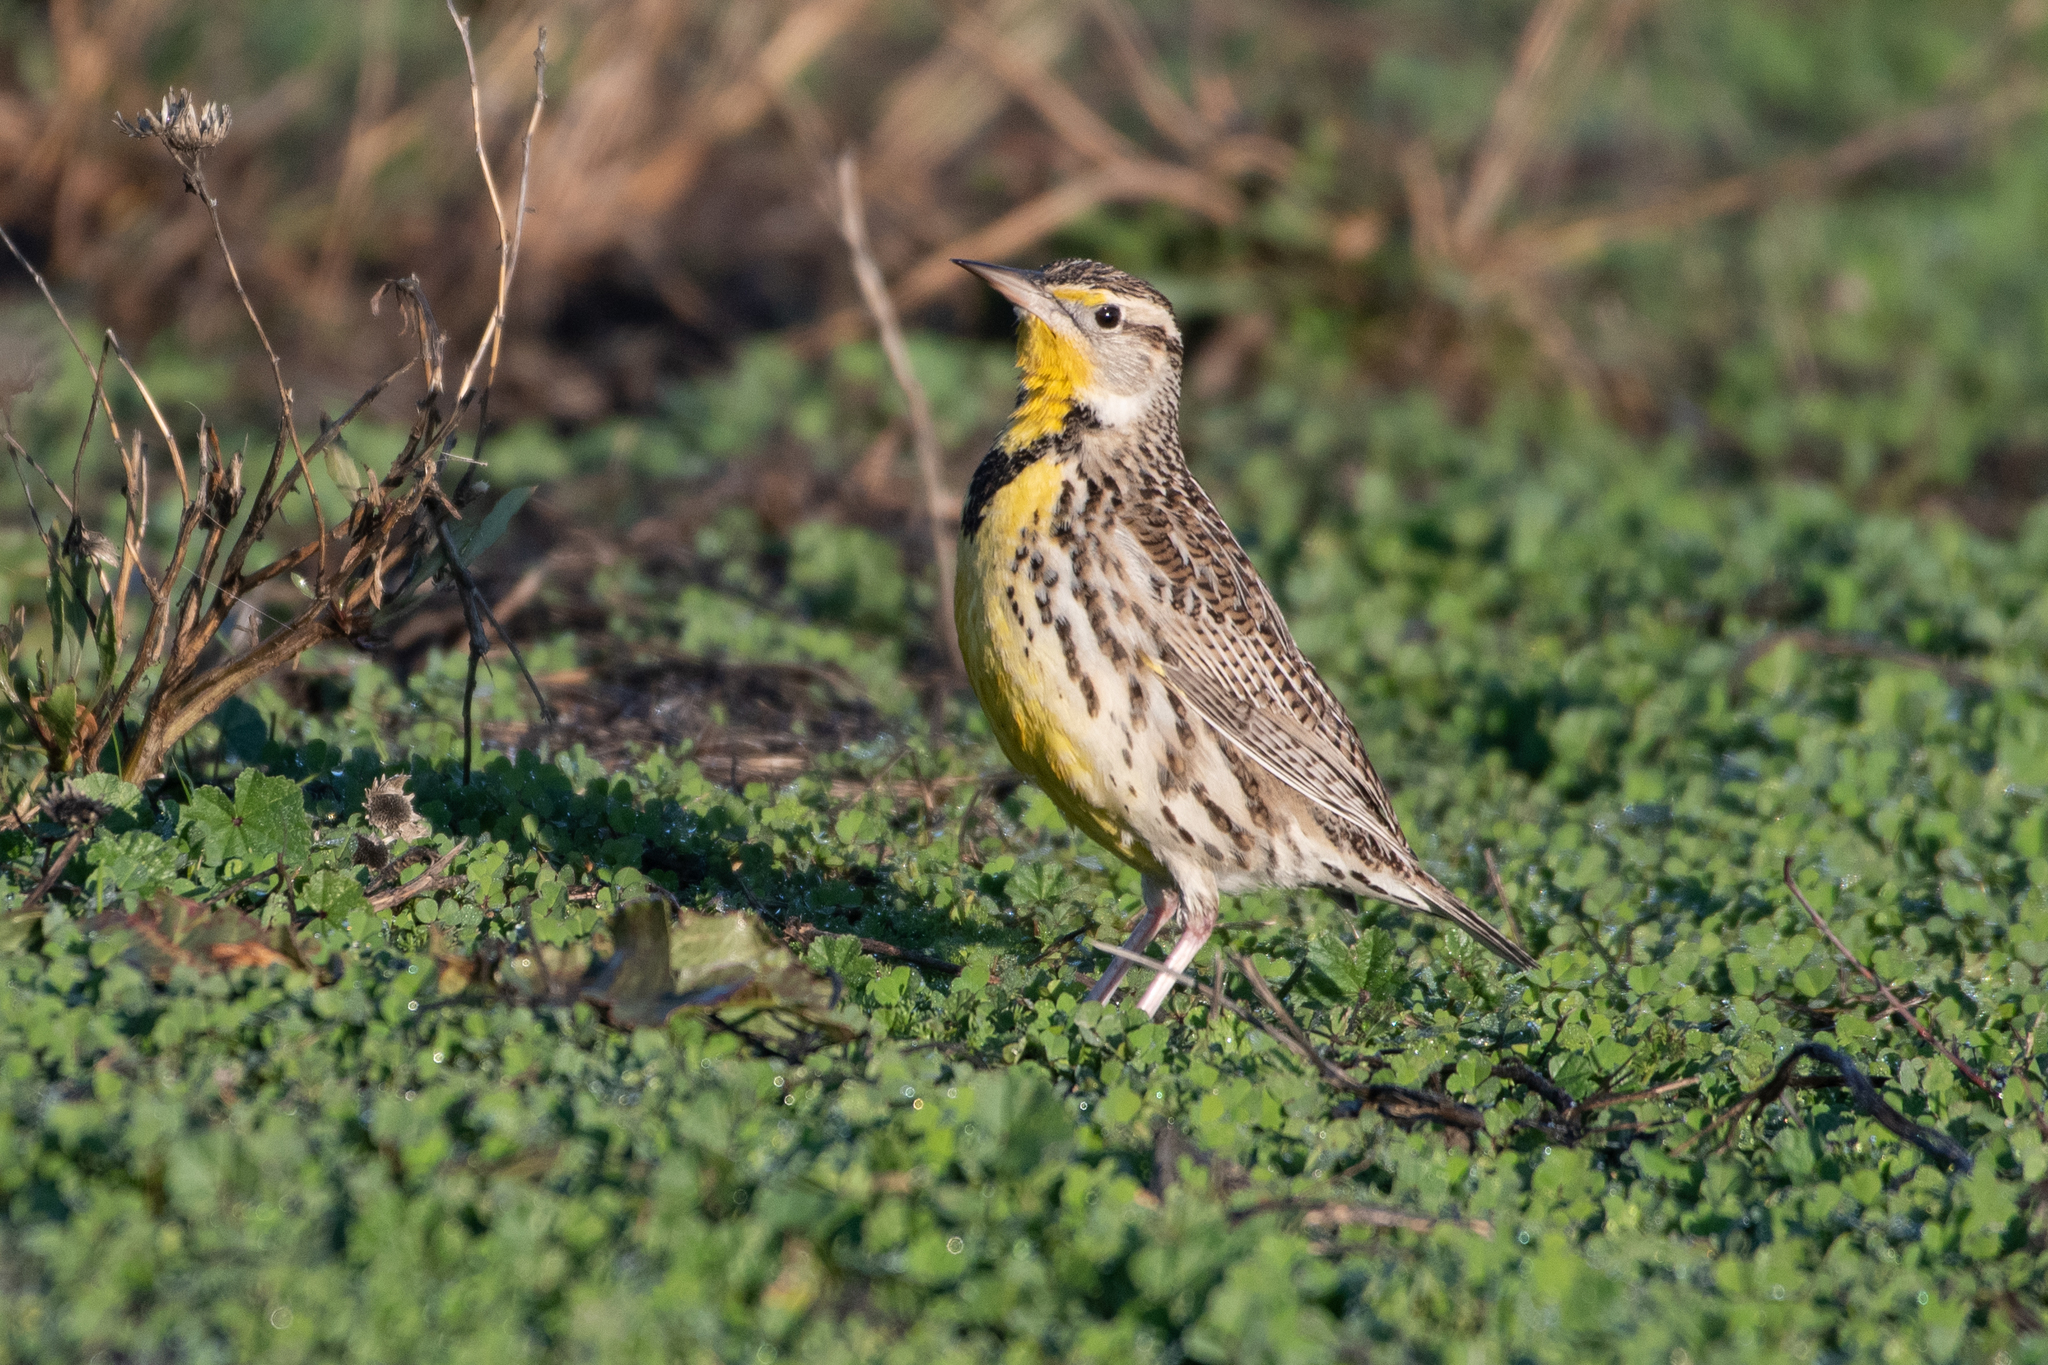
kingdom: Animalia
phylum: Chordata
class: Aves
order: Passeriformes
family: Icteridae
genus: Sturnella
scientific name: Sturnella neglecta
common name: Western meadowlark
